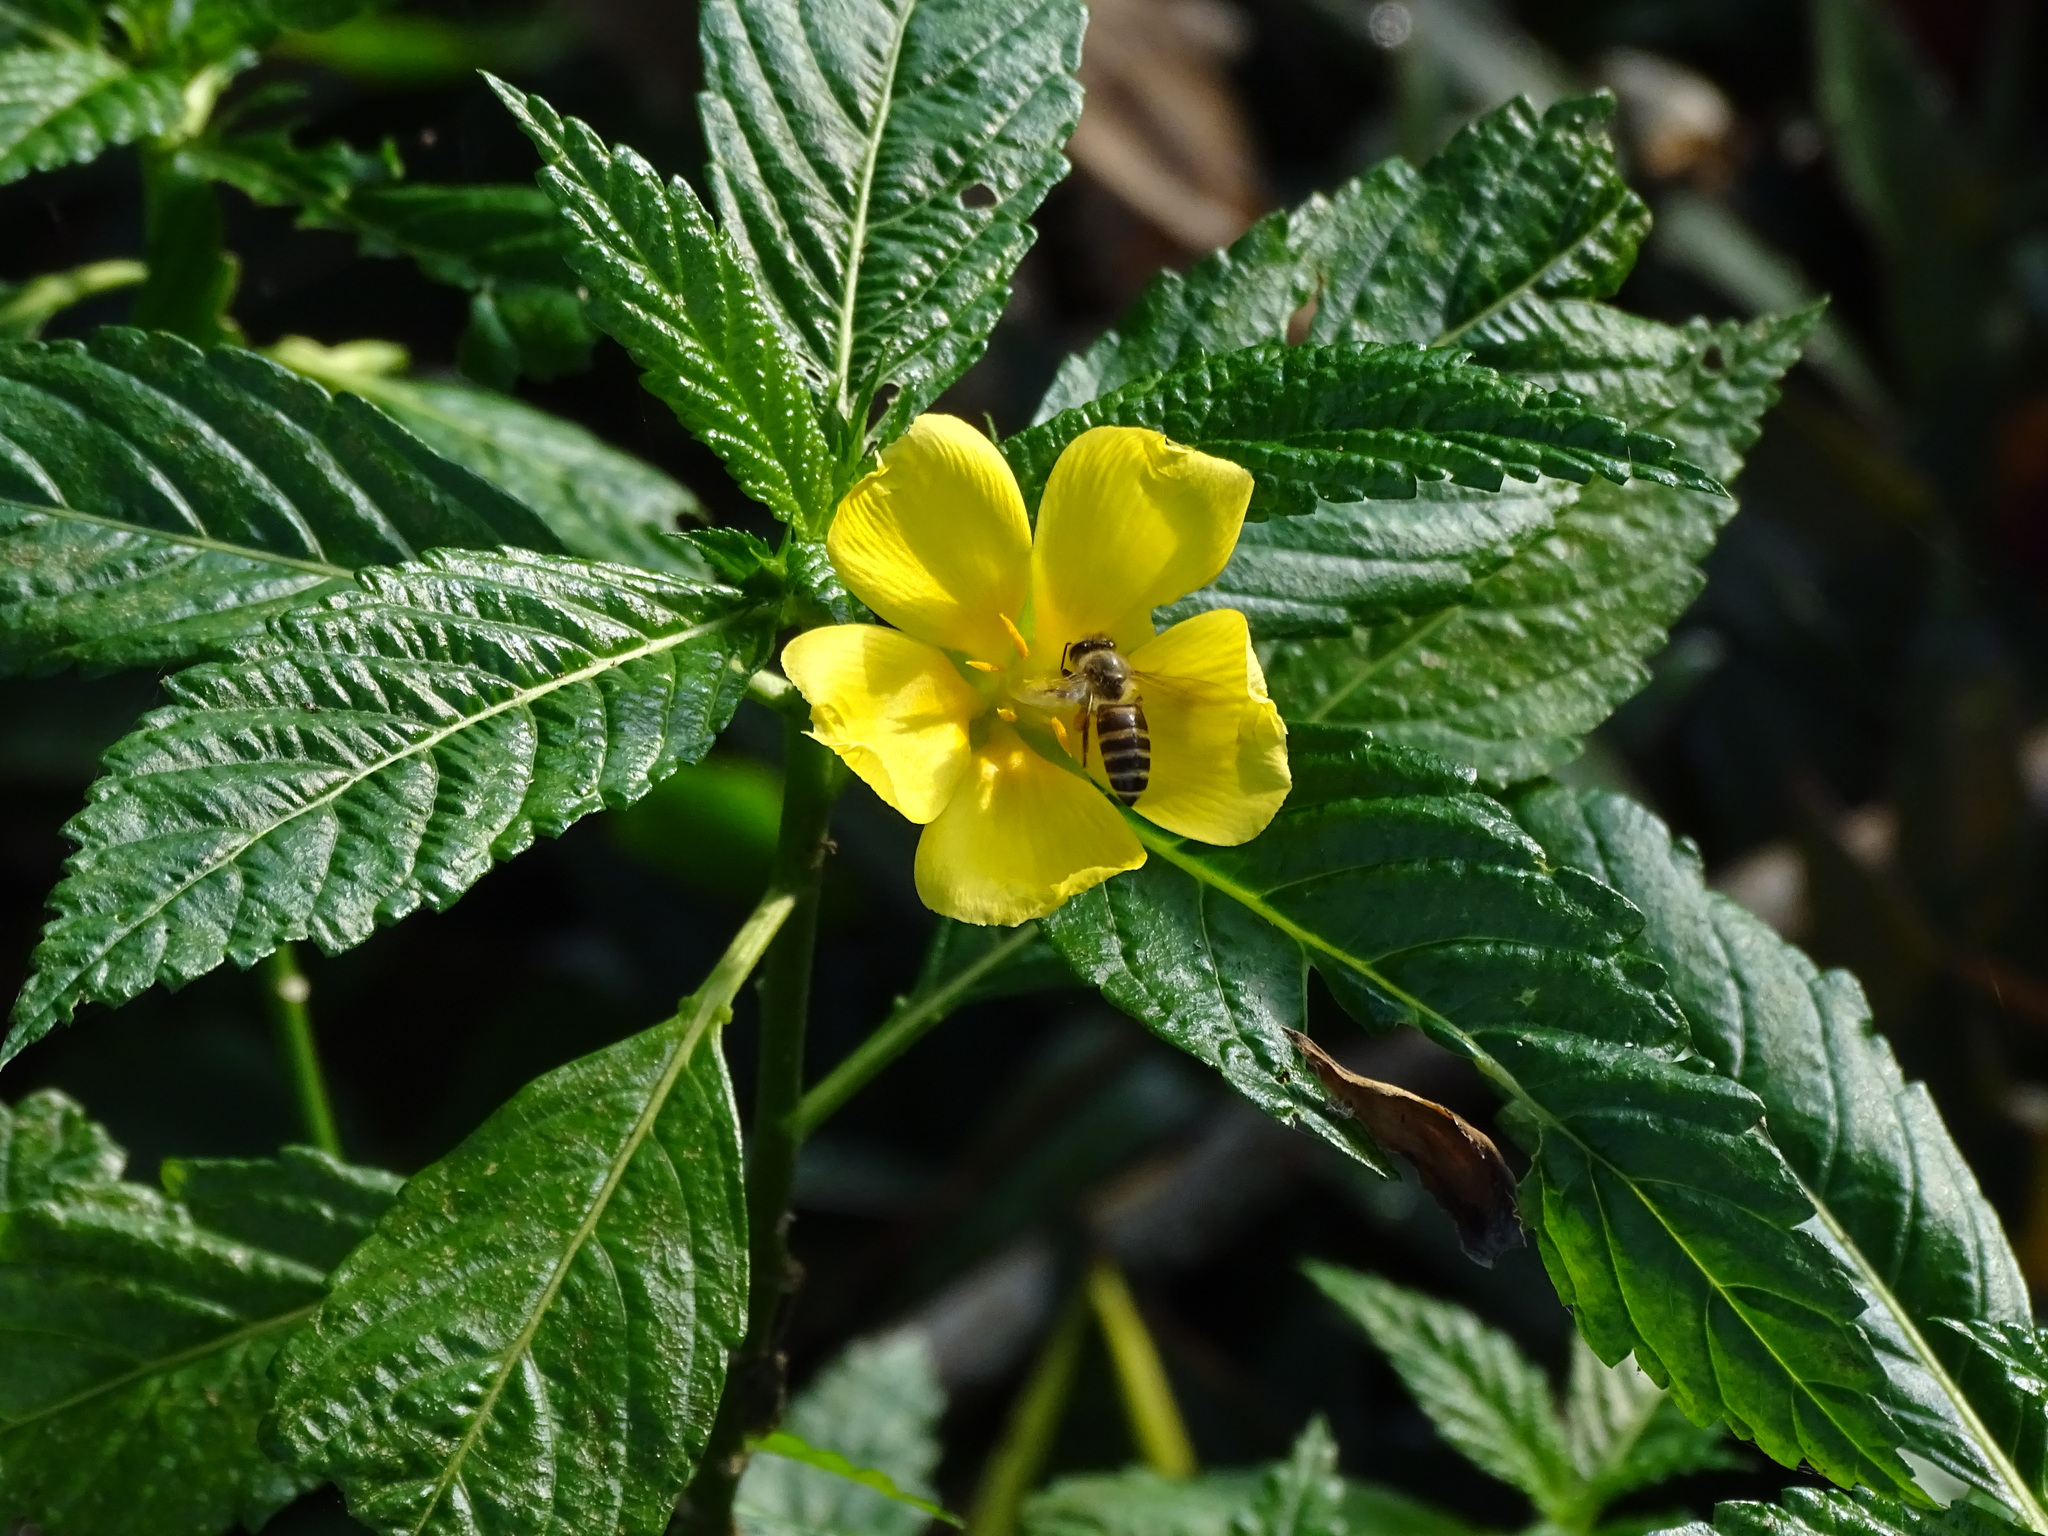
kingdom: Animalia
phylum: Arthropoda
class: Insecta
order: Hymenoptera
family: Apidae
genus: Apis
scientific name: Apis cerana
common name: Honey bee
